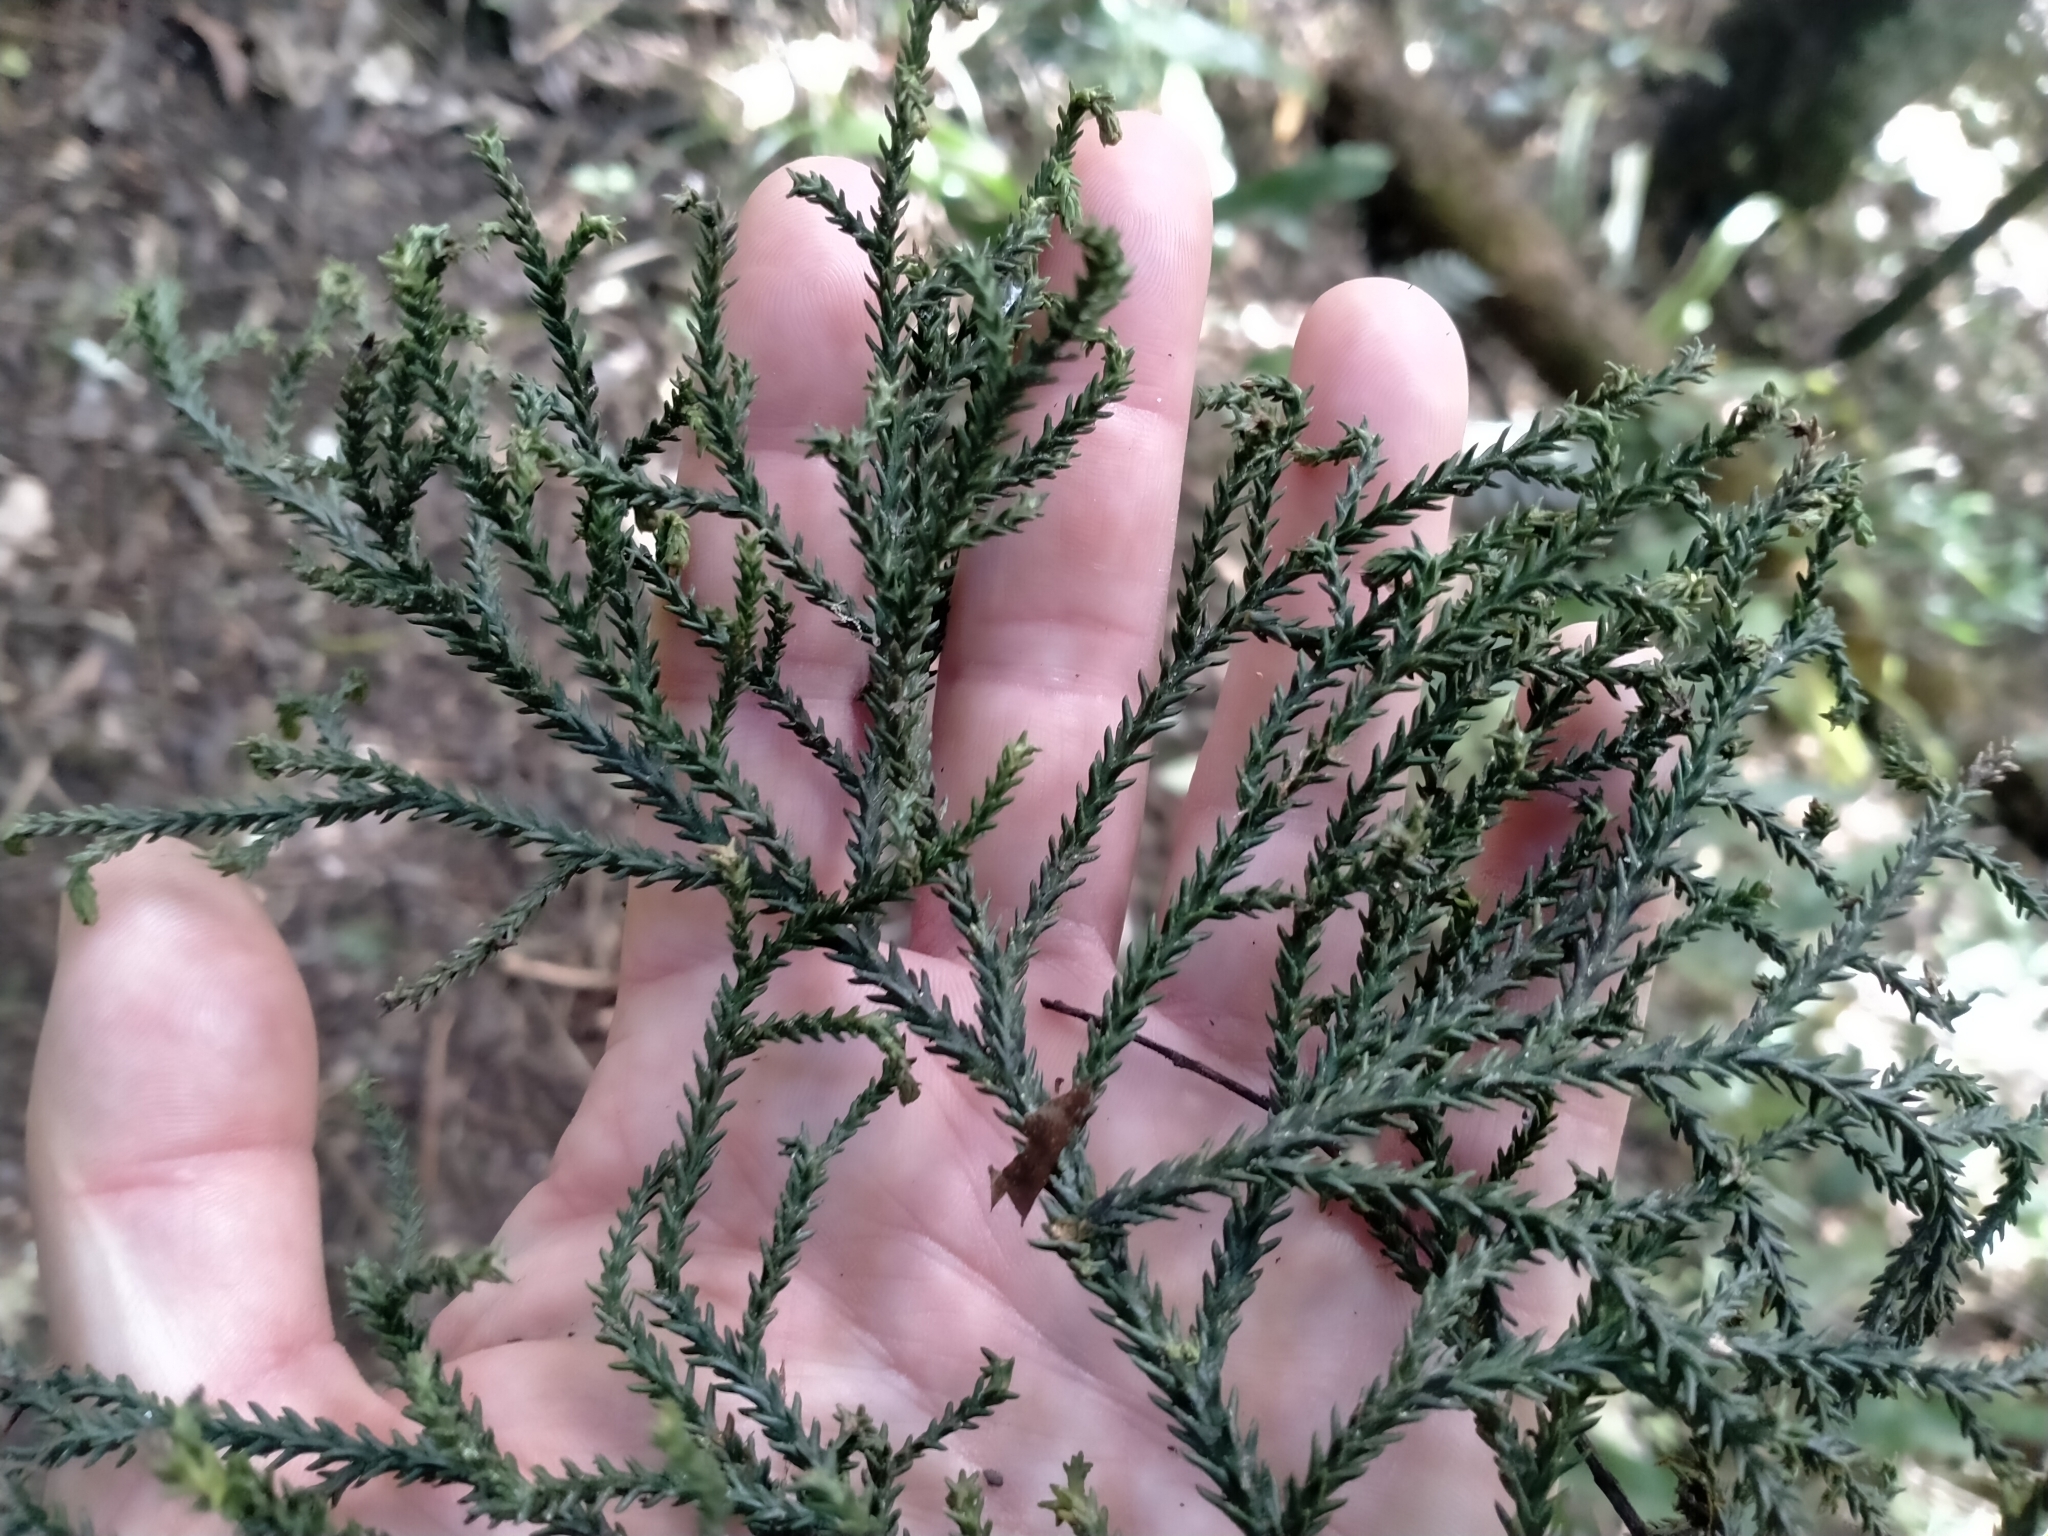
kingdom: Plantae
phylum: Tracheophyta
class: Pinopsida
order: Pinales
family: Podocarpaceae
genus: Dacrydium
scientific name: Dacrydium cupressinum
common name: Red pine
